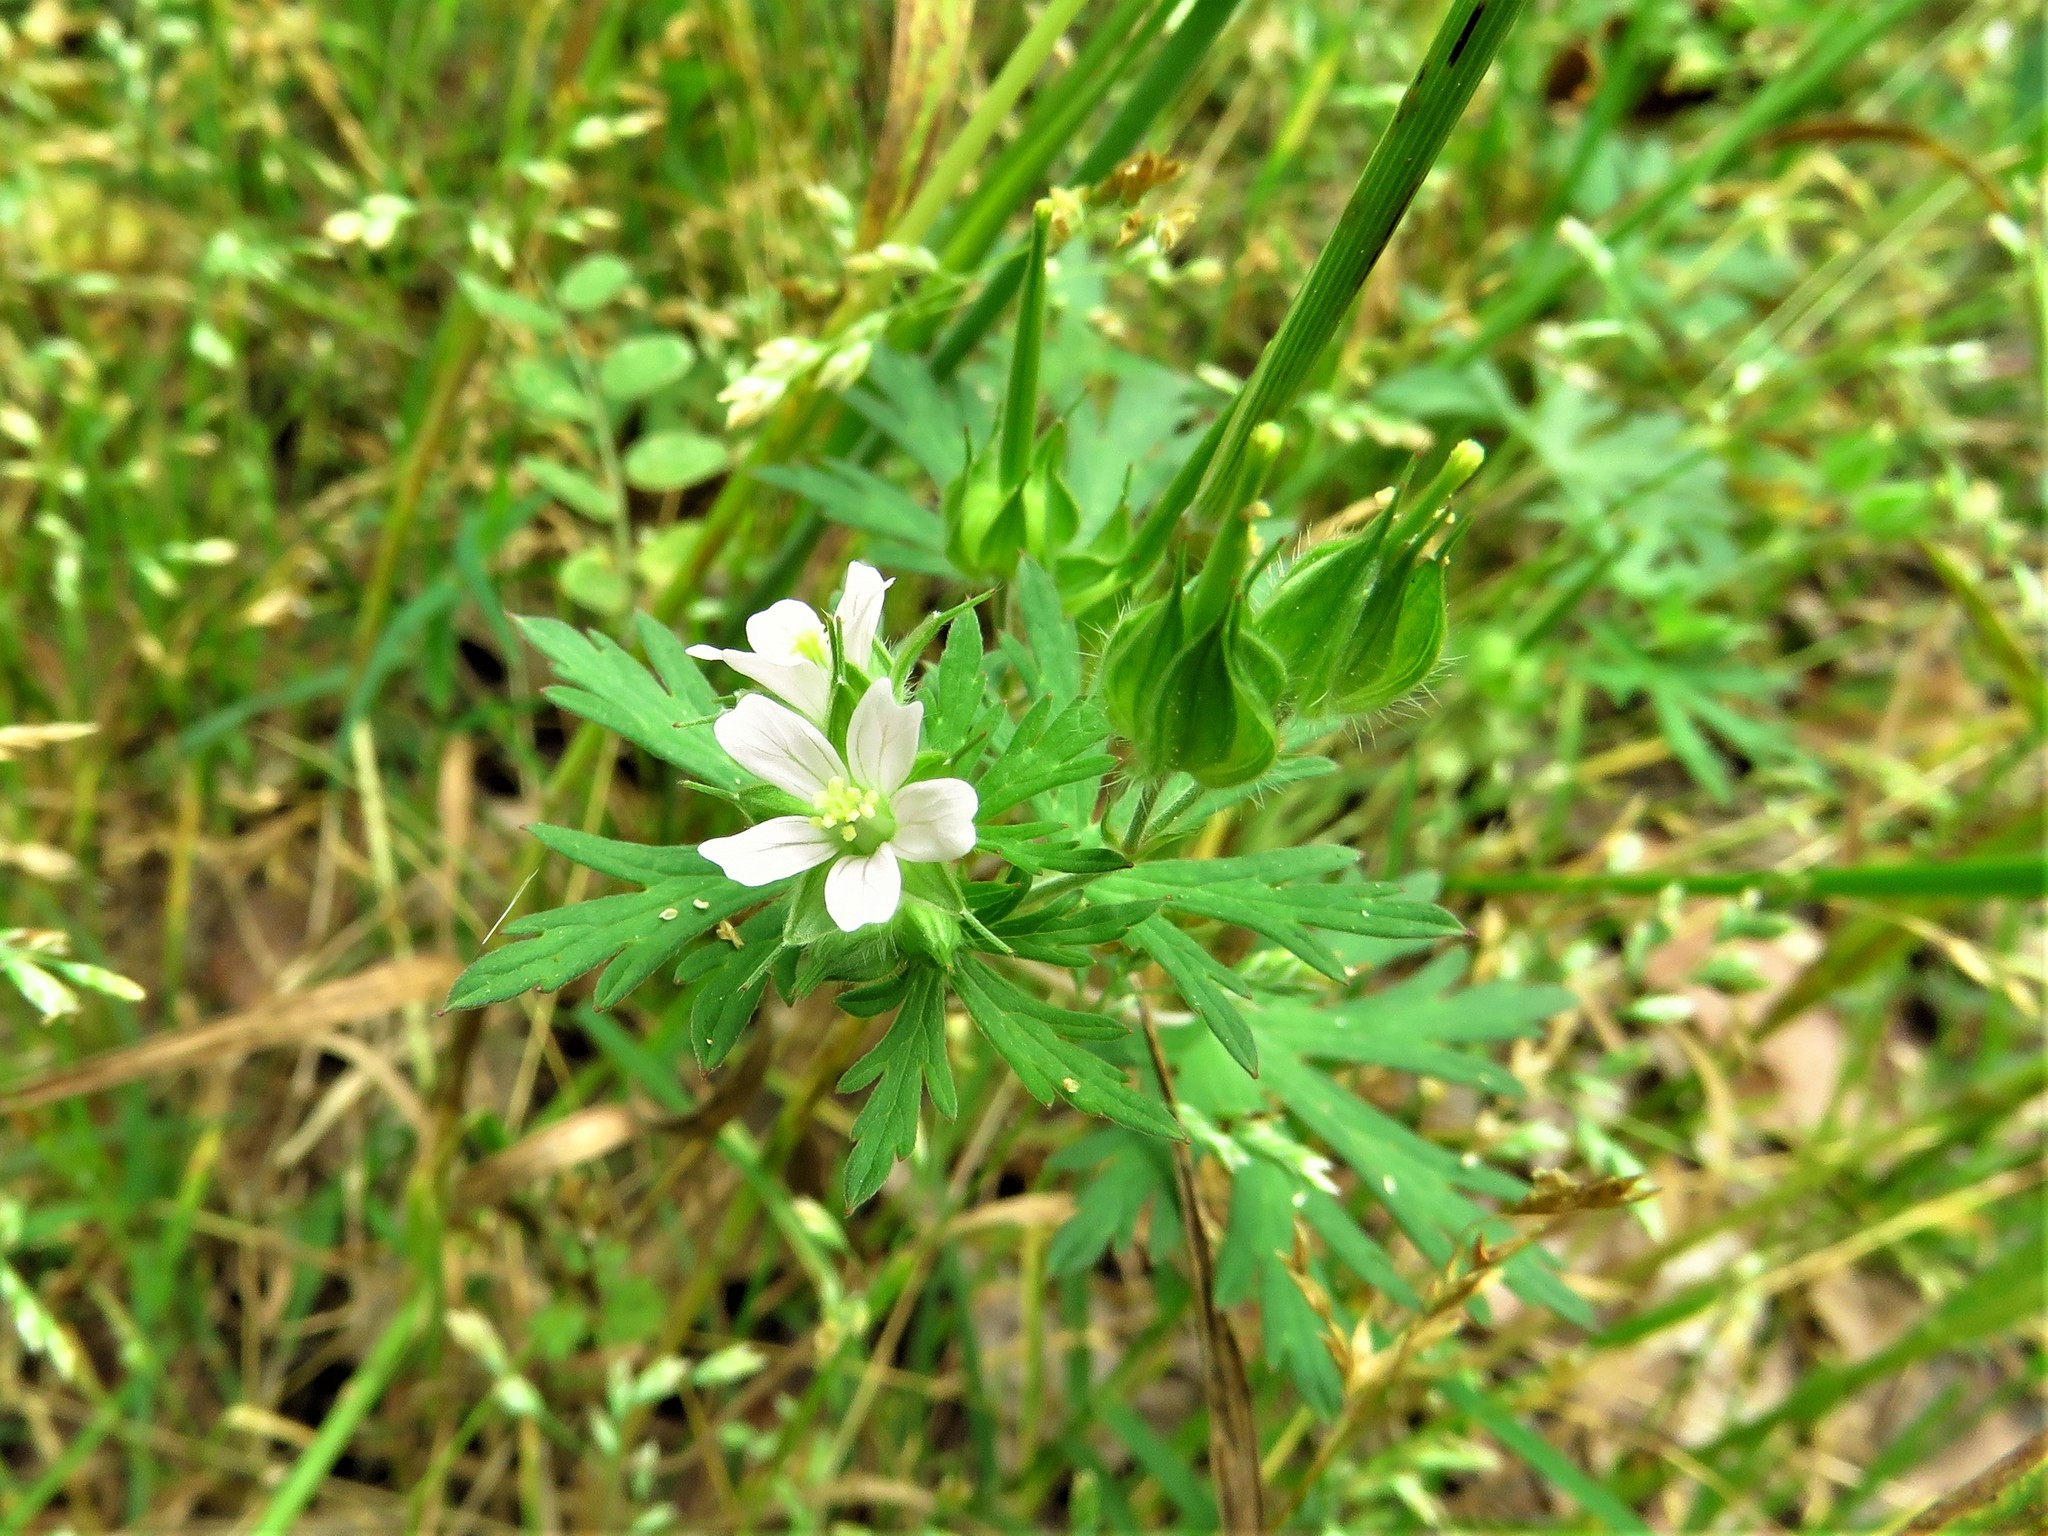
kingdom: Plantae
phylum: Tracheophyta
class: Magnoliopsida
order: Geraniales
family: Geraniaceae
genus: Geranium
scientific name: Geranium carolinianum
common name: Carolina crane's-bill
